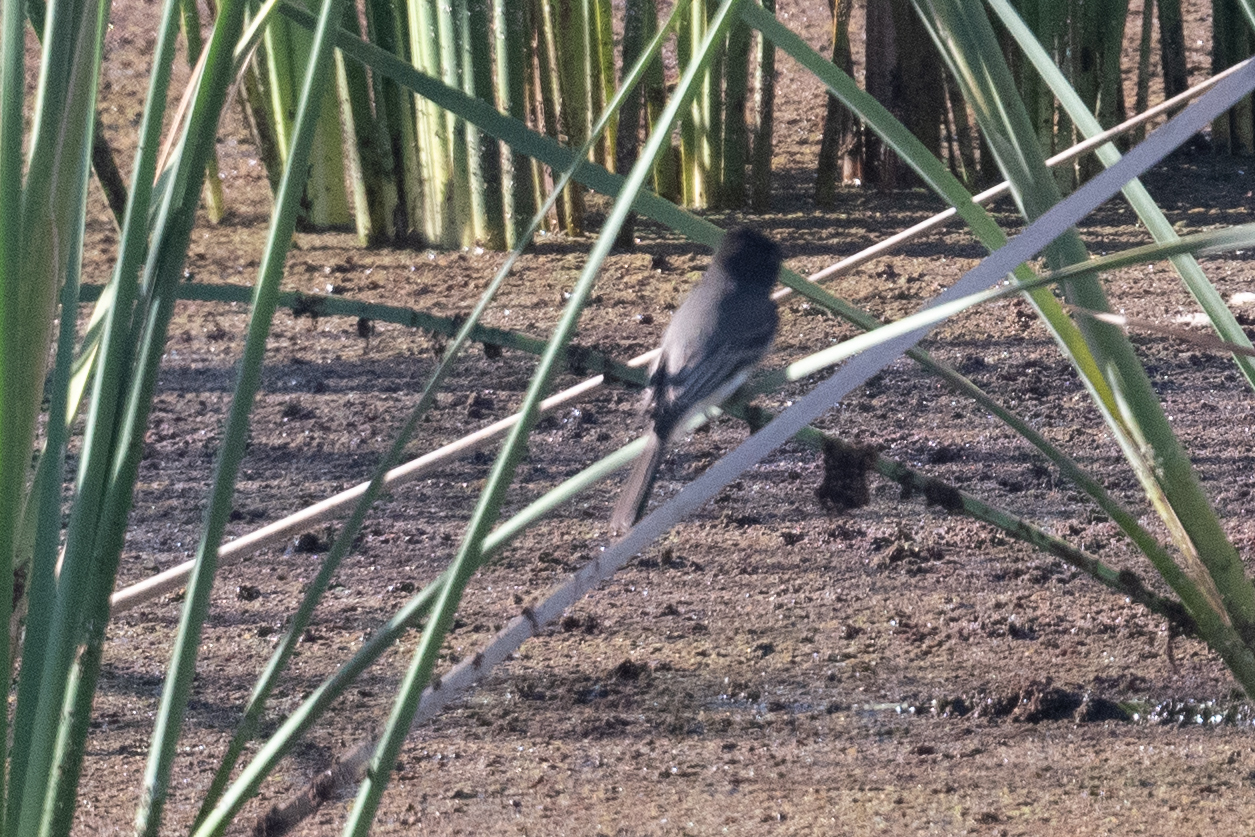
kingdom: Animalia
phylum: Chordata
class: Aves
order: Passeriformes
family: Tyrannidae
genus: Sayornis
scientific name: Sayornis nigricans
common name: Black phoebe
